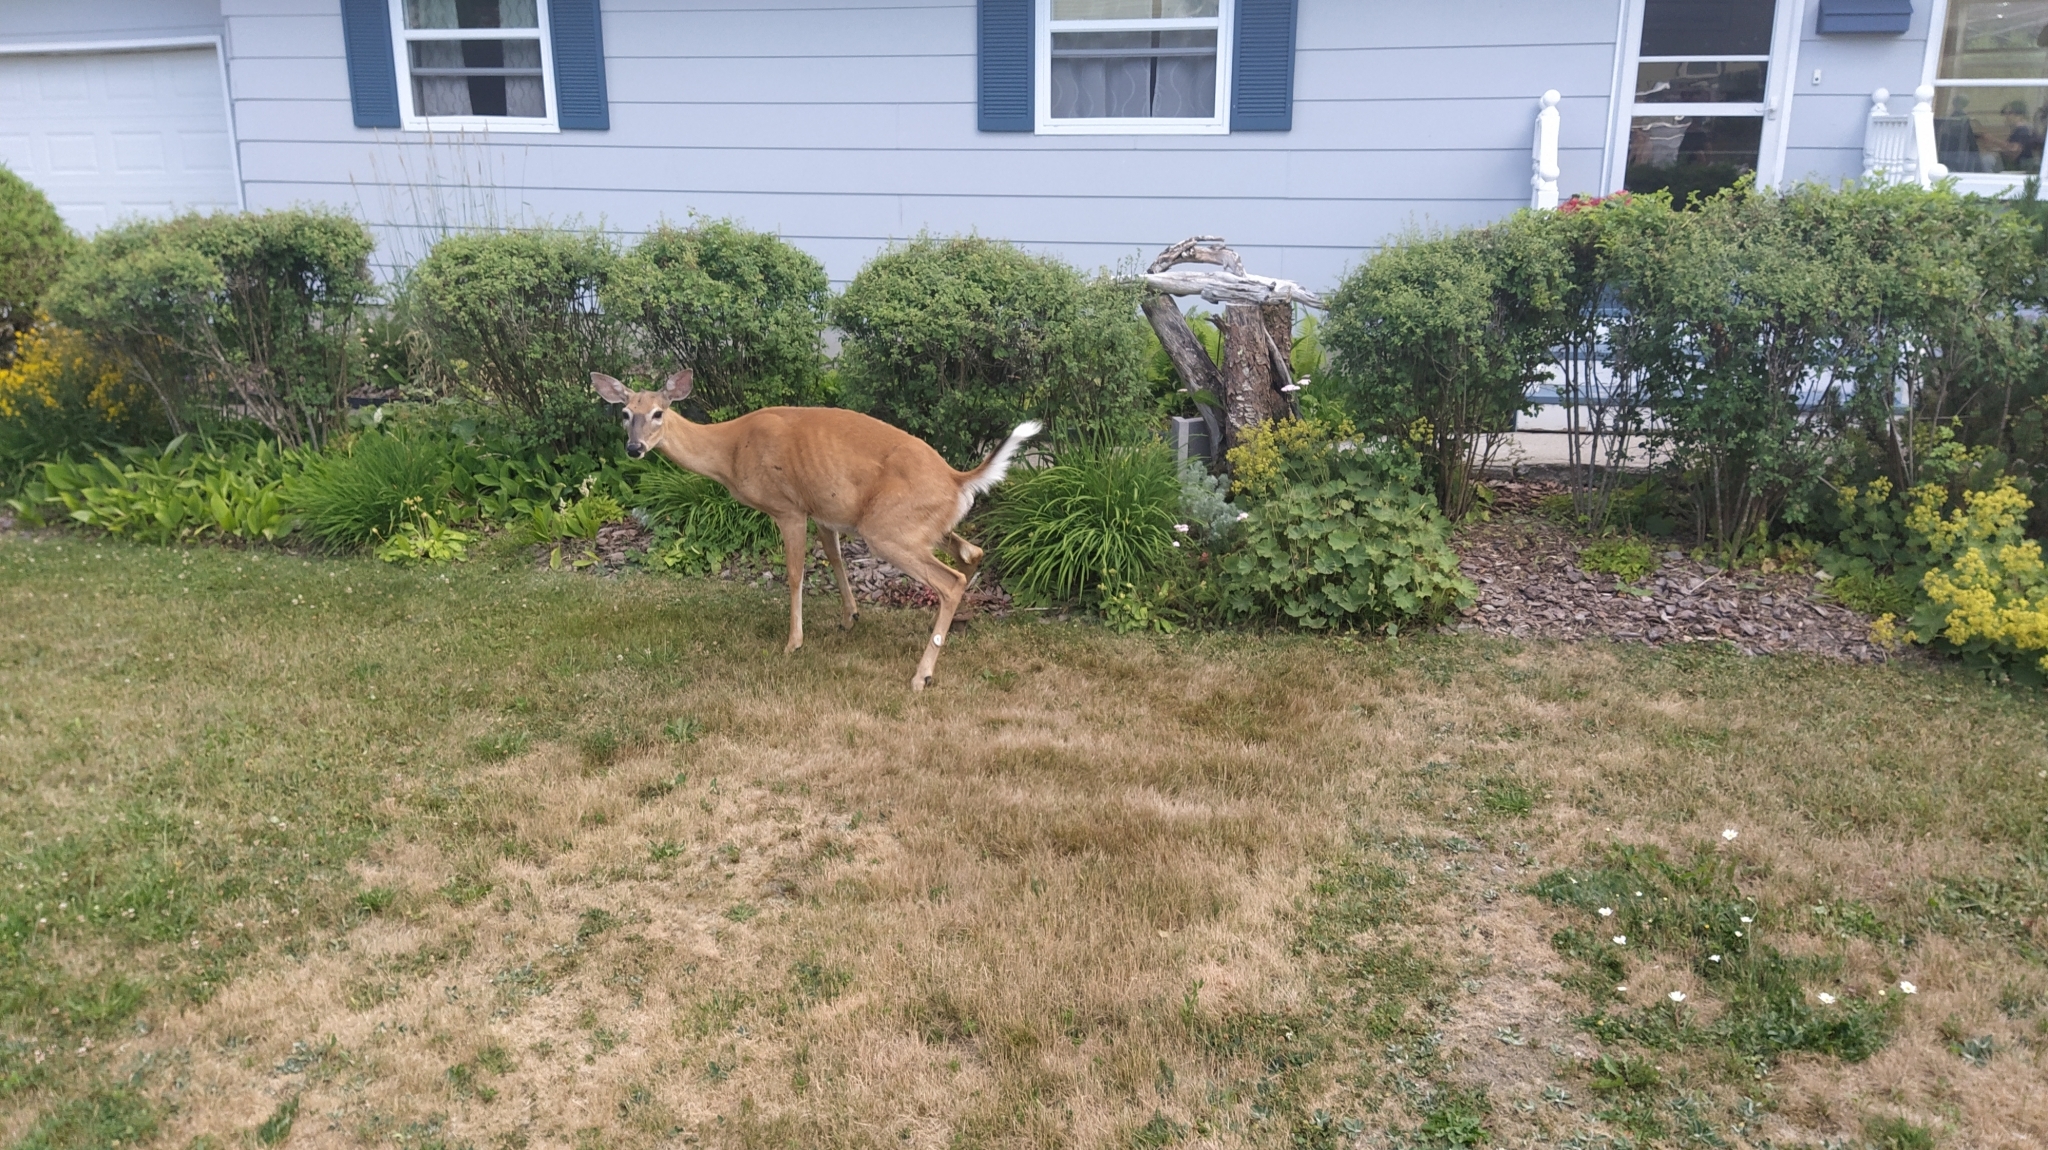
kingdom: Animalia
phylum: Chordata
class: Mammalia
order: Artiodactyla
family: Cervidae
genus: Odocoileus
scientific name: Odocoileus virginianus
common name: White-tailed deer
